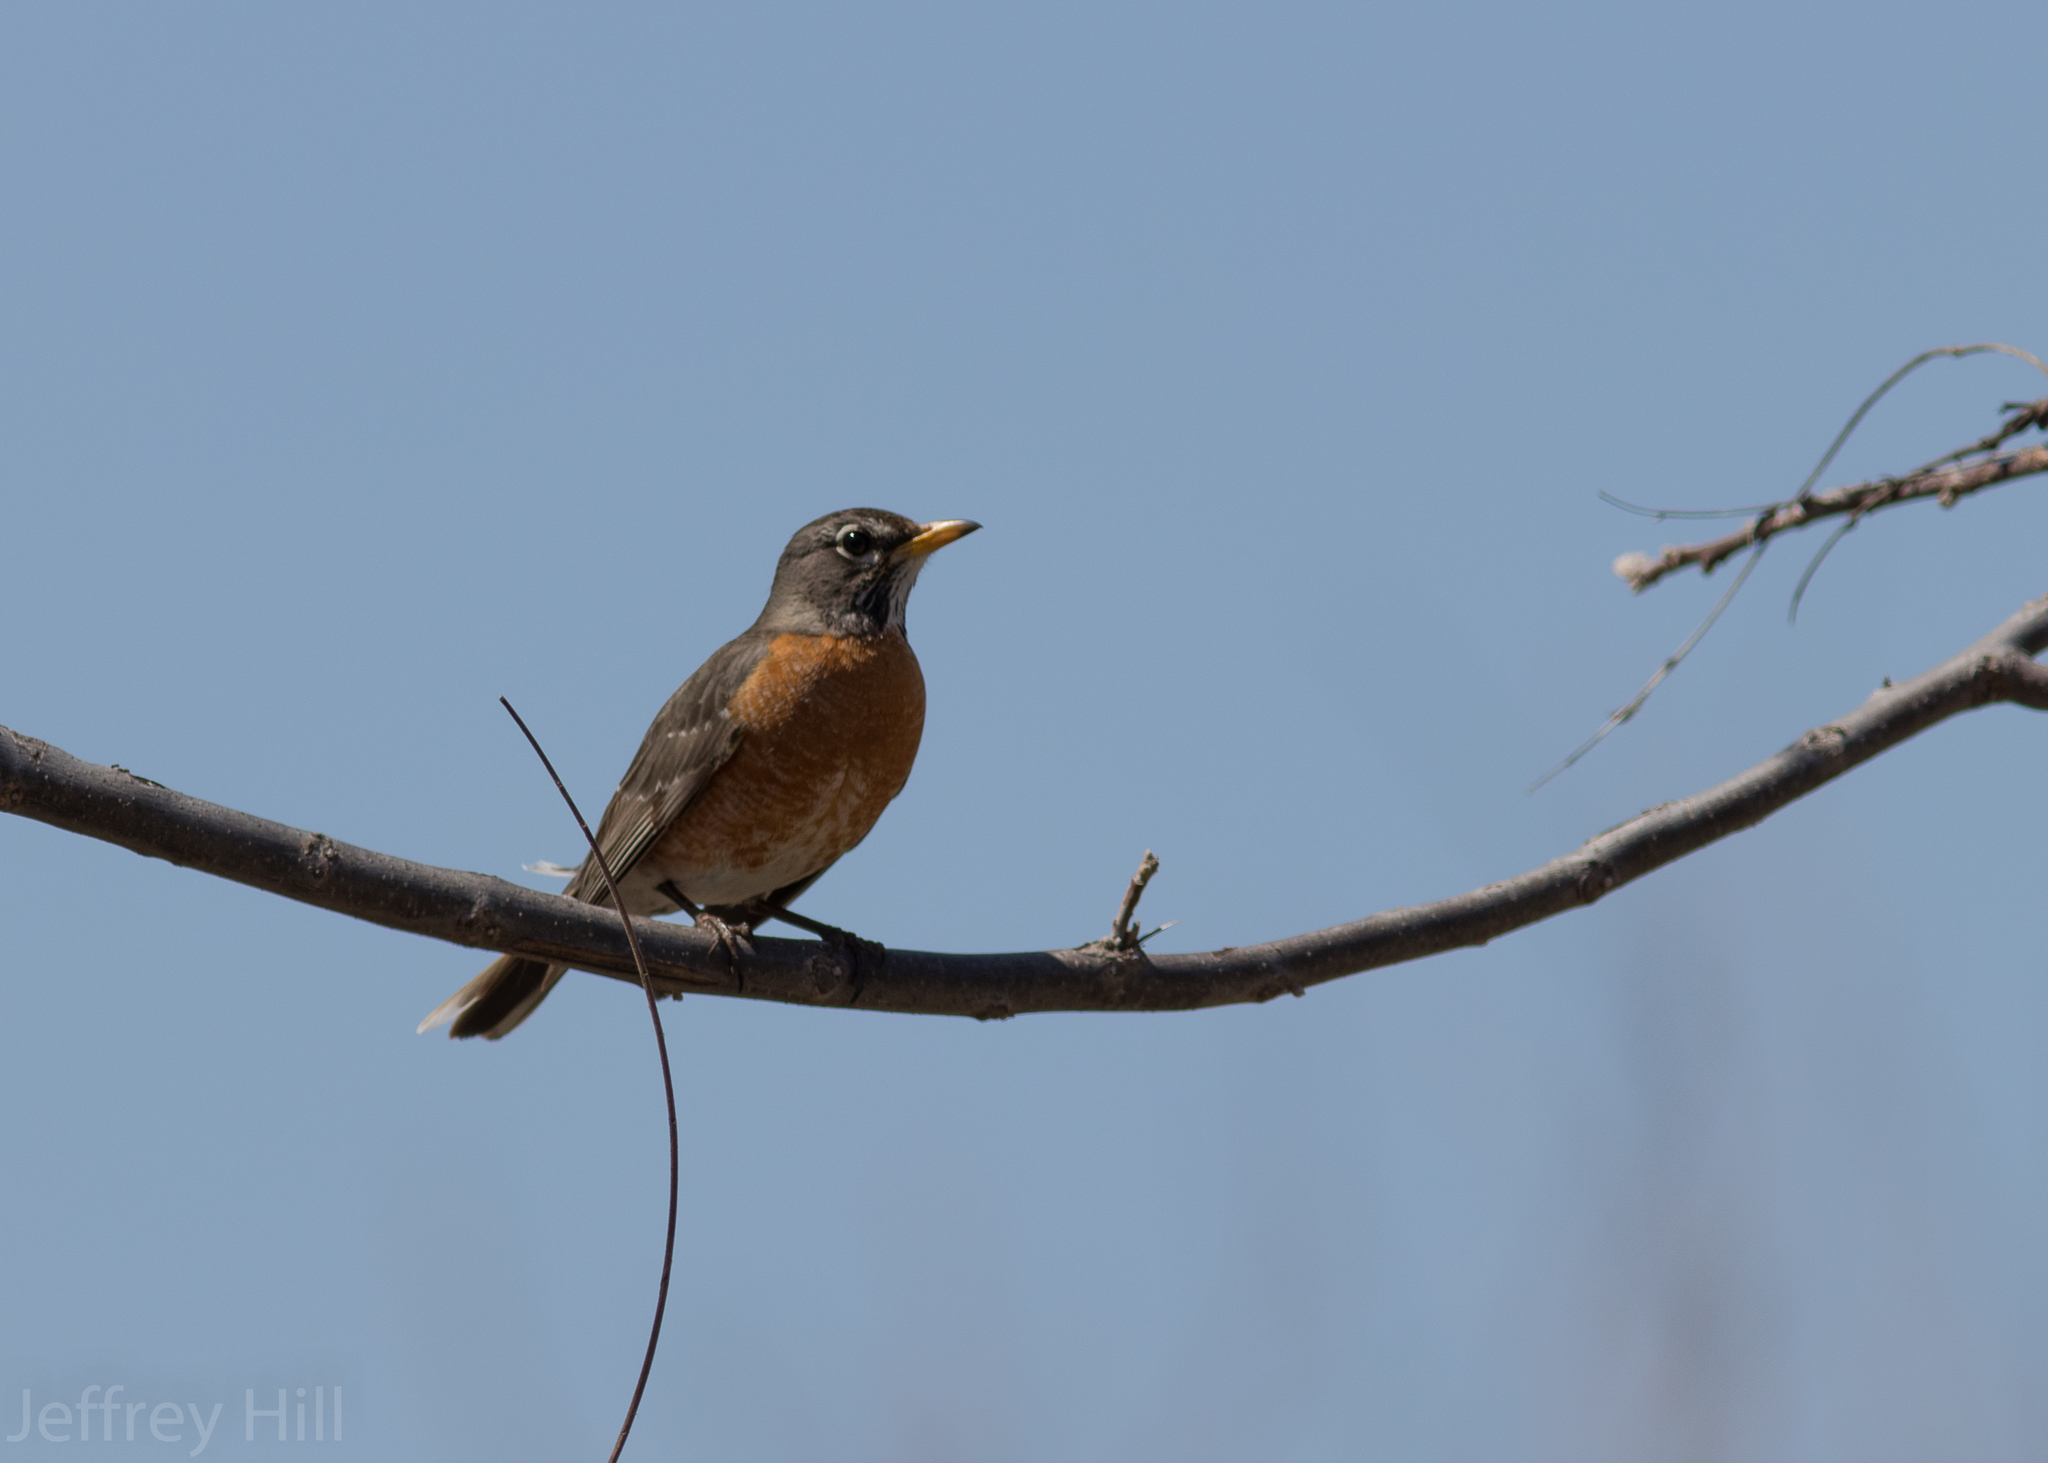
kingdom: Animalia
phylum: Chordata
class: Aves
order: Passeriformes
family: Turdidae
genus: Turdus
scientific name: Turdus migratorius
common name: American robin
